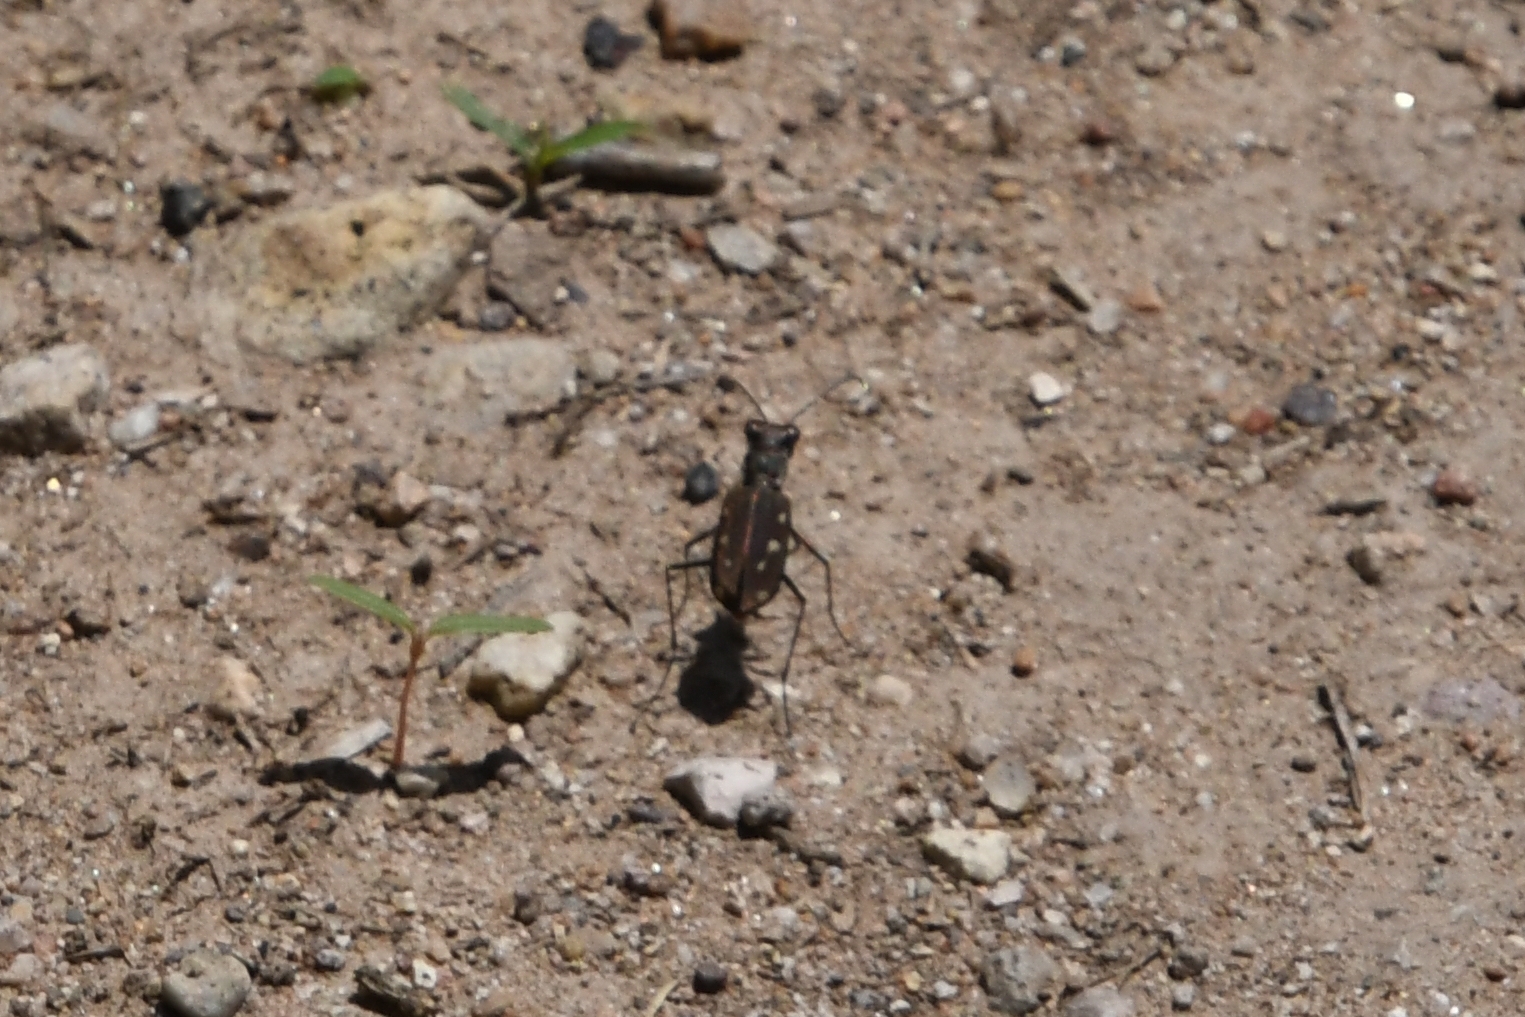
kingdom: Animalia
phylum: Arthropoda
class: Insecta
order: Coleoptera
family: Carabidae
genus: Cicindela
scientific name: Cicindela ocellata
